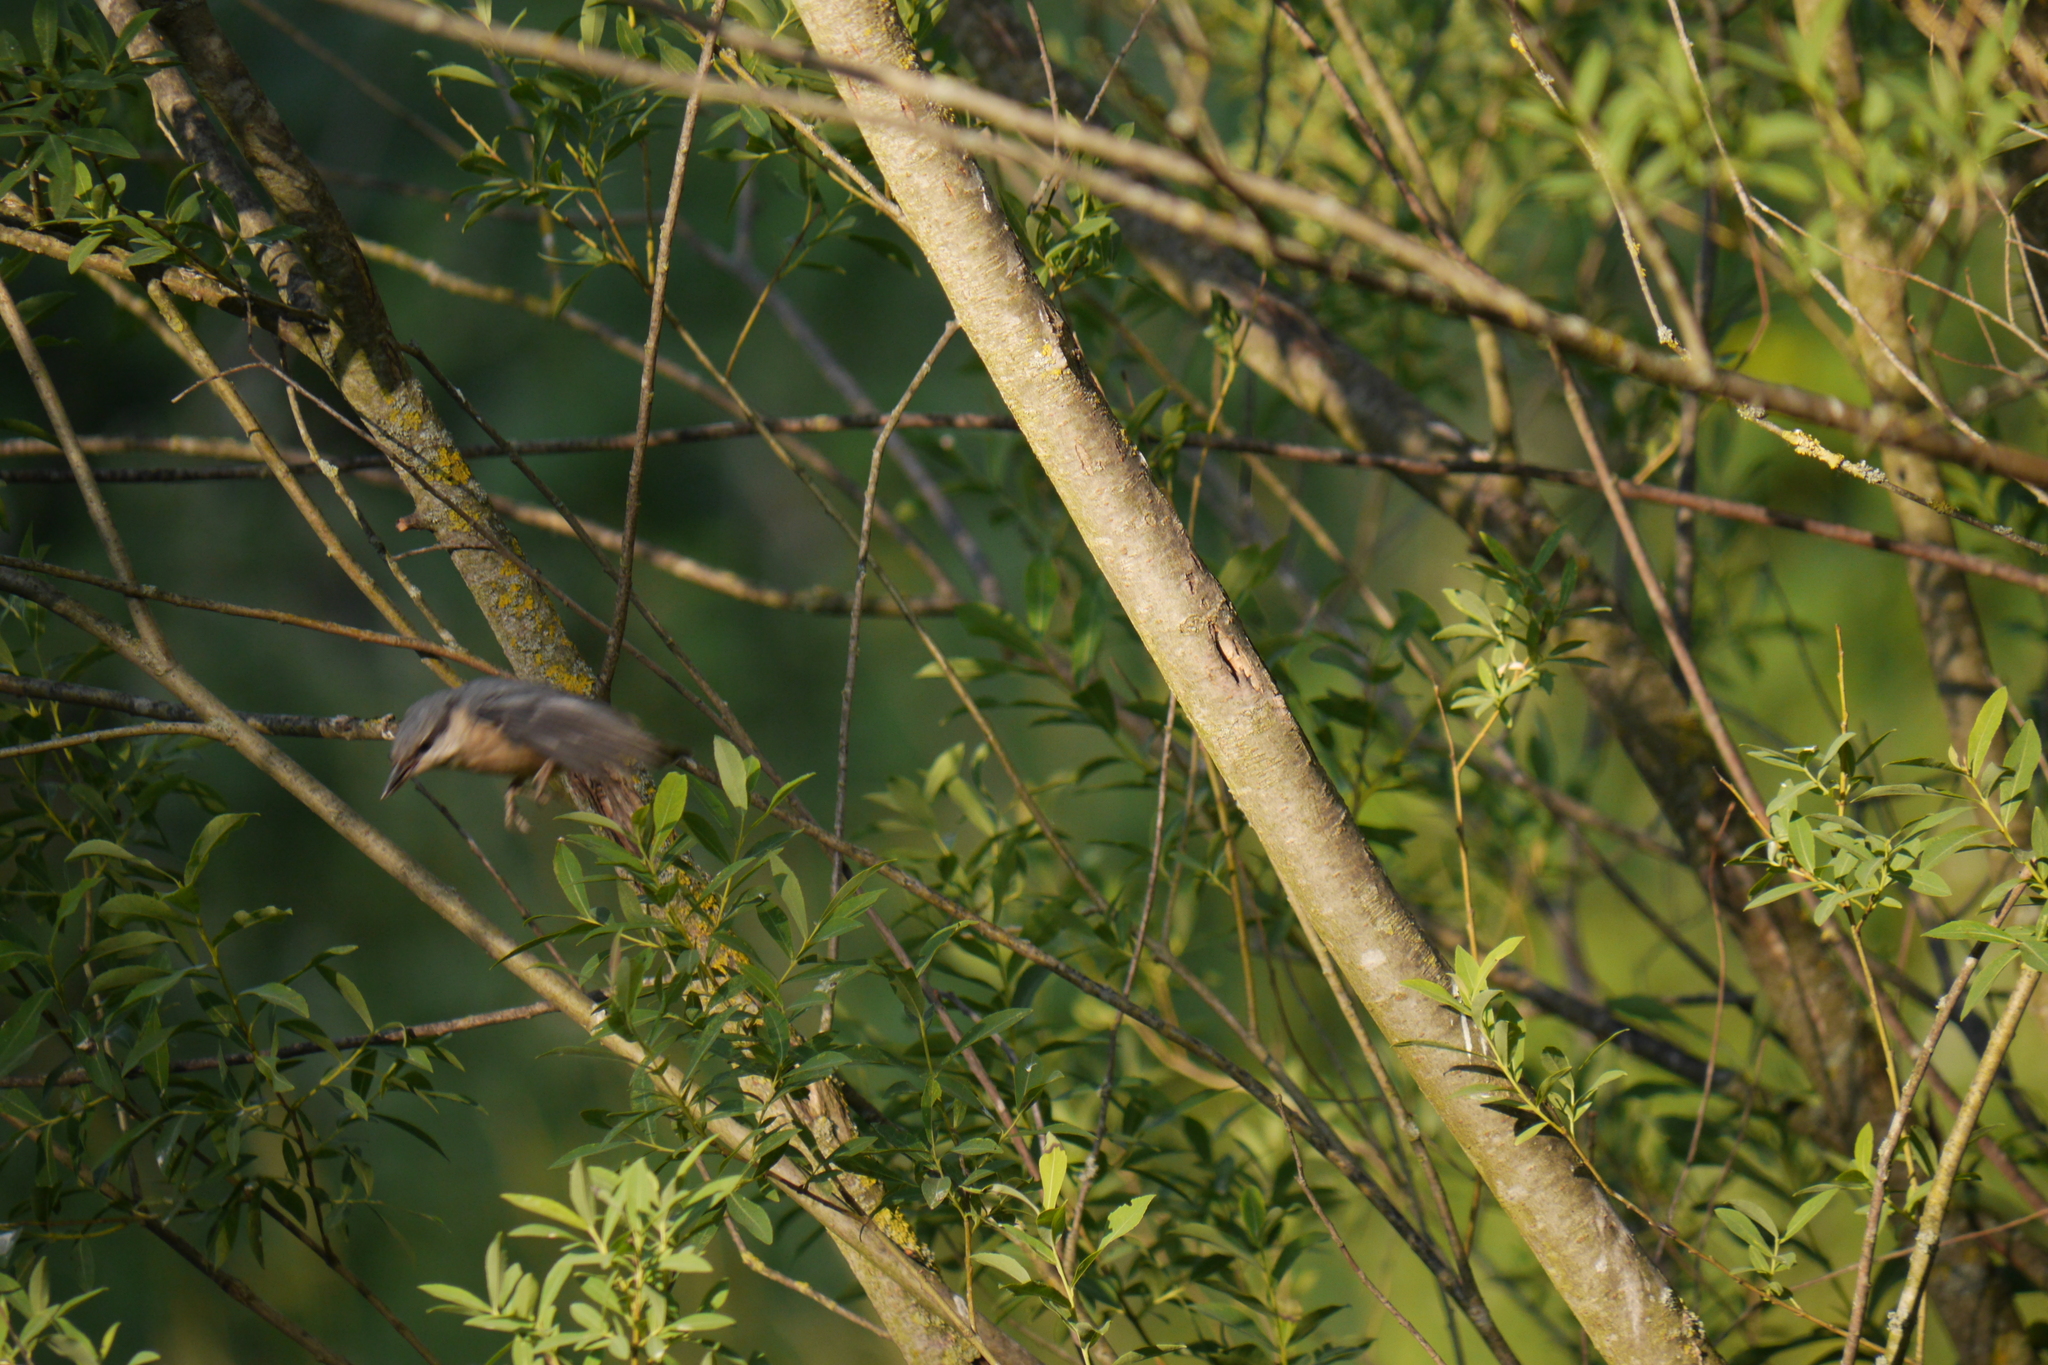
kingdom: Animalia
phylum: Chordata
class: Aves
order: Passeriformes
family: Sittidae
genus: Sitta
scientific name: Sitta europaea
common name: Eurasian nuthatch
